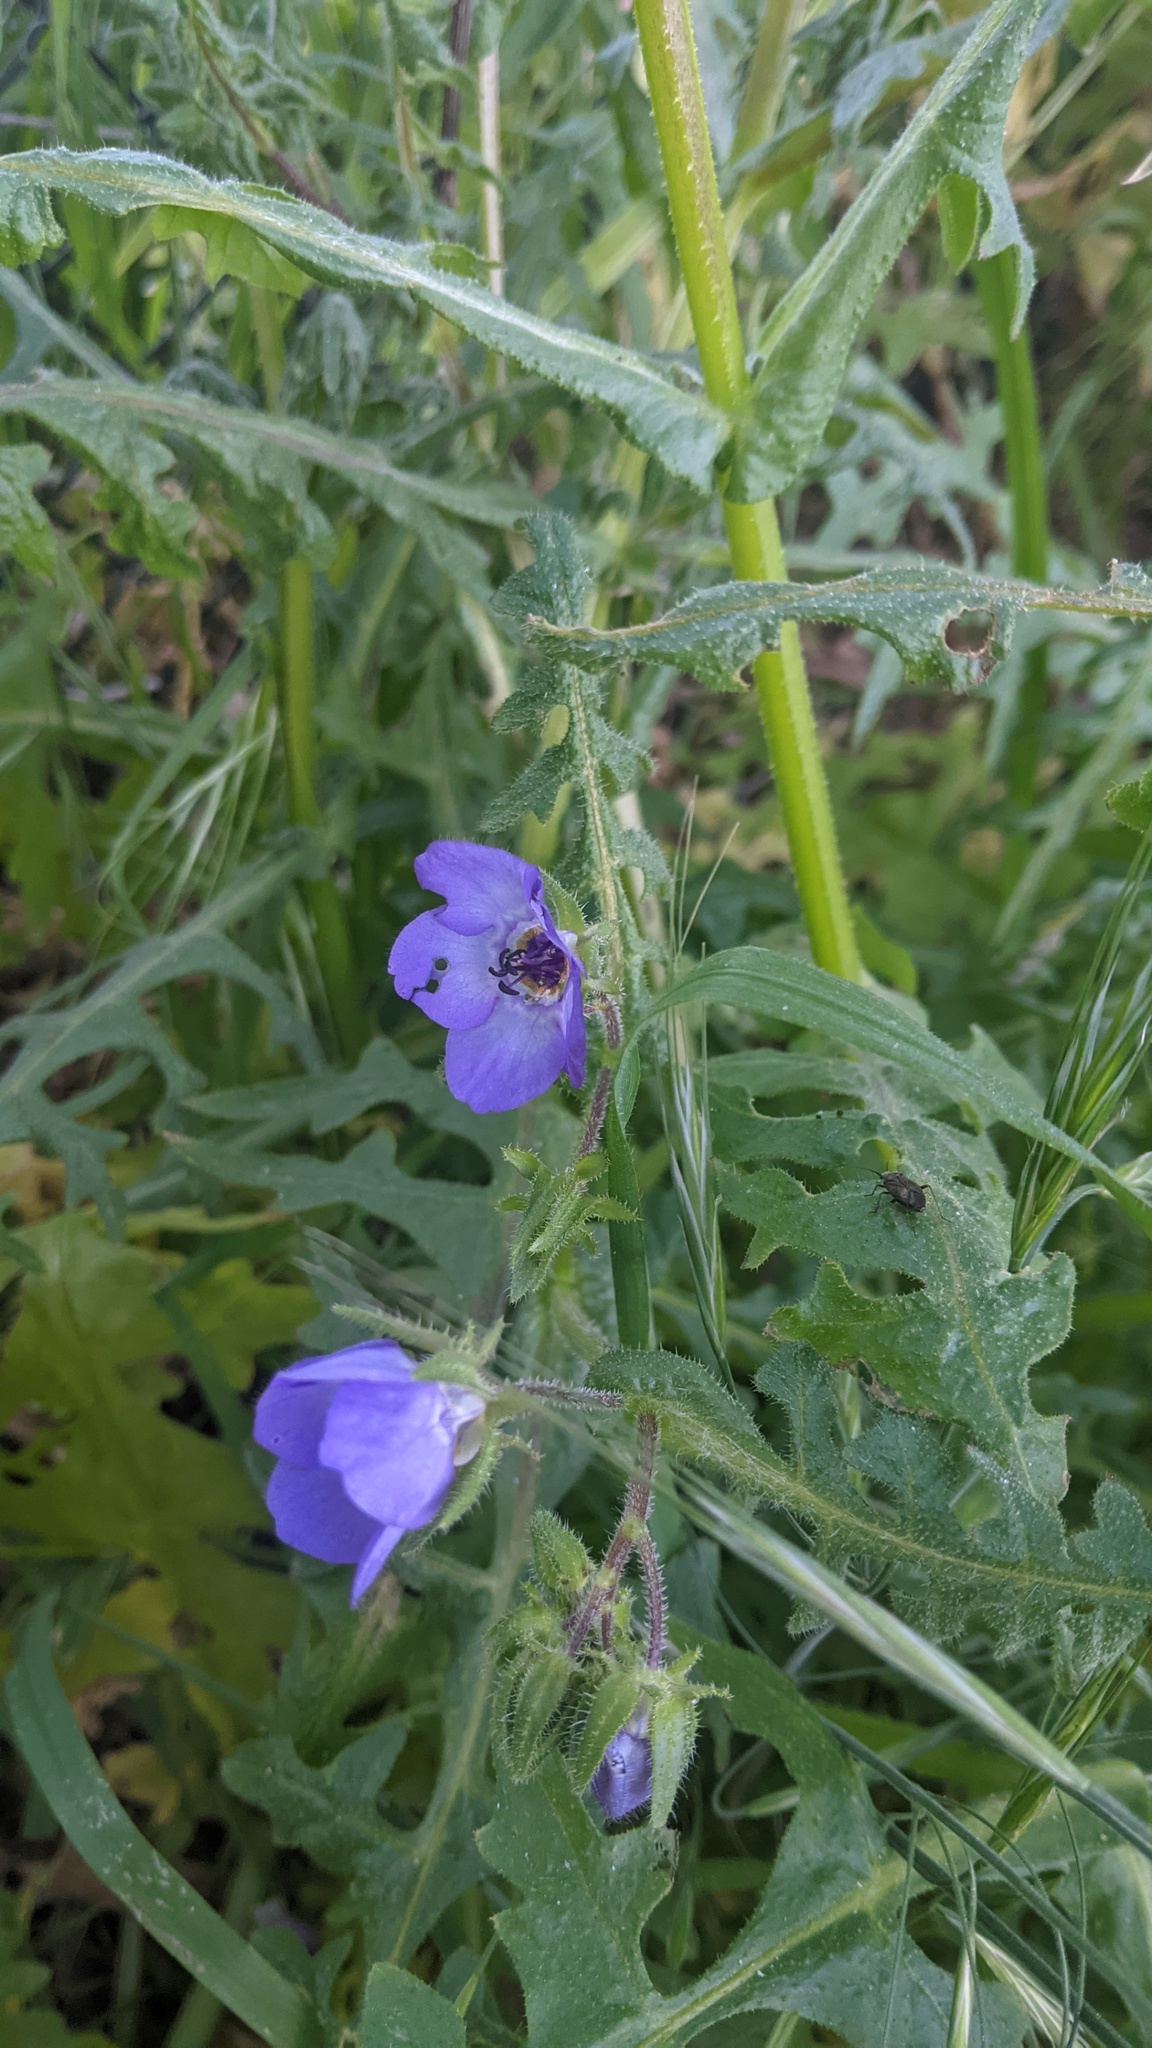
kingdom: Plantae
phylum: Tracheophyta
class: Magnoliopsida
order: Boraginales
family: Hydrophyllaceae
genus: Pholistoma
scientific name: Pholistoma auritum
